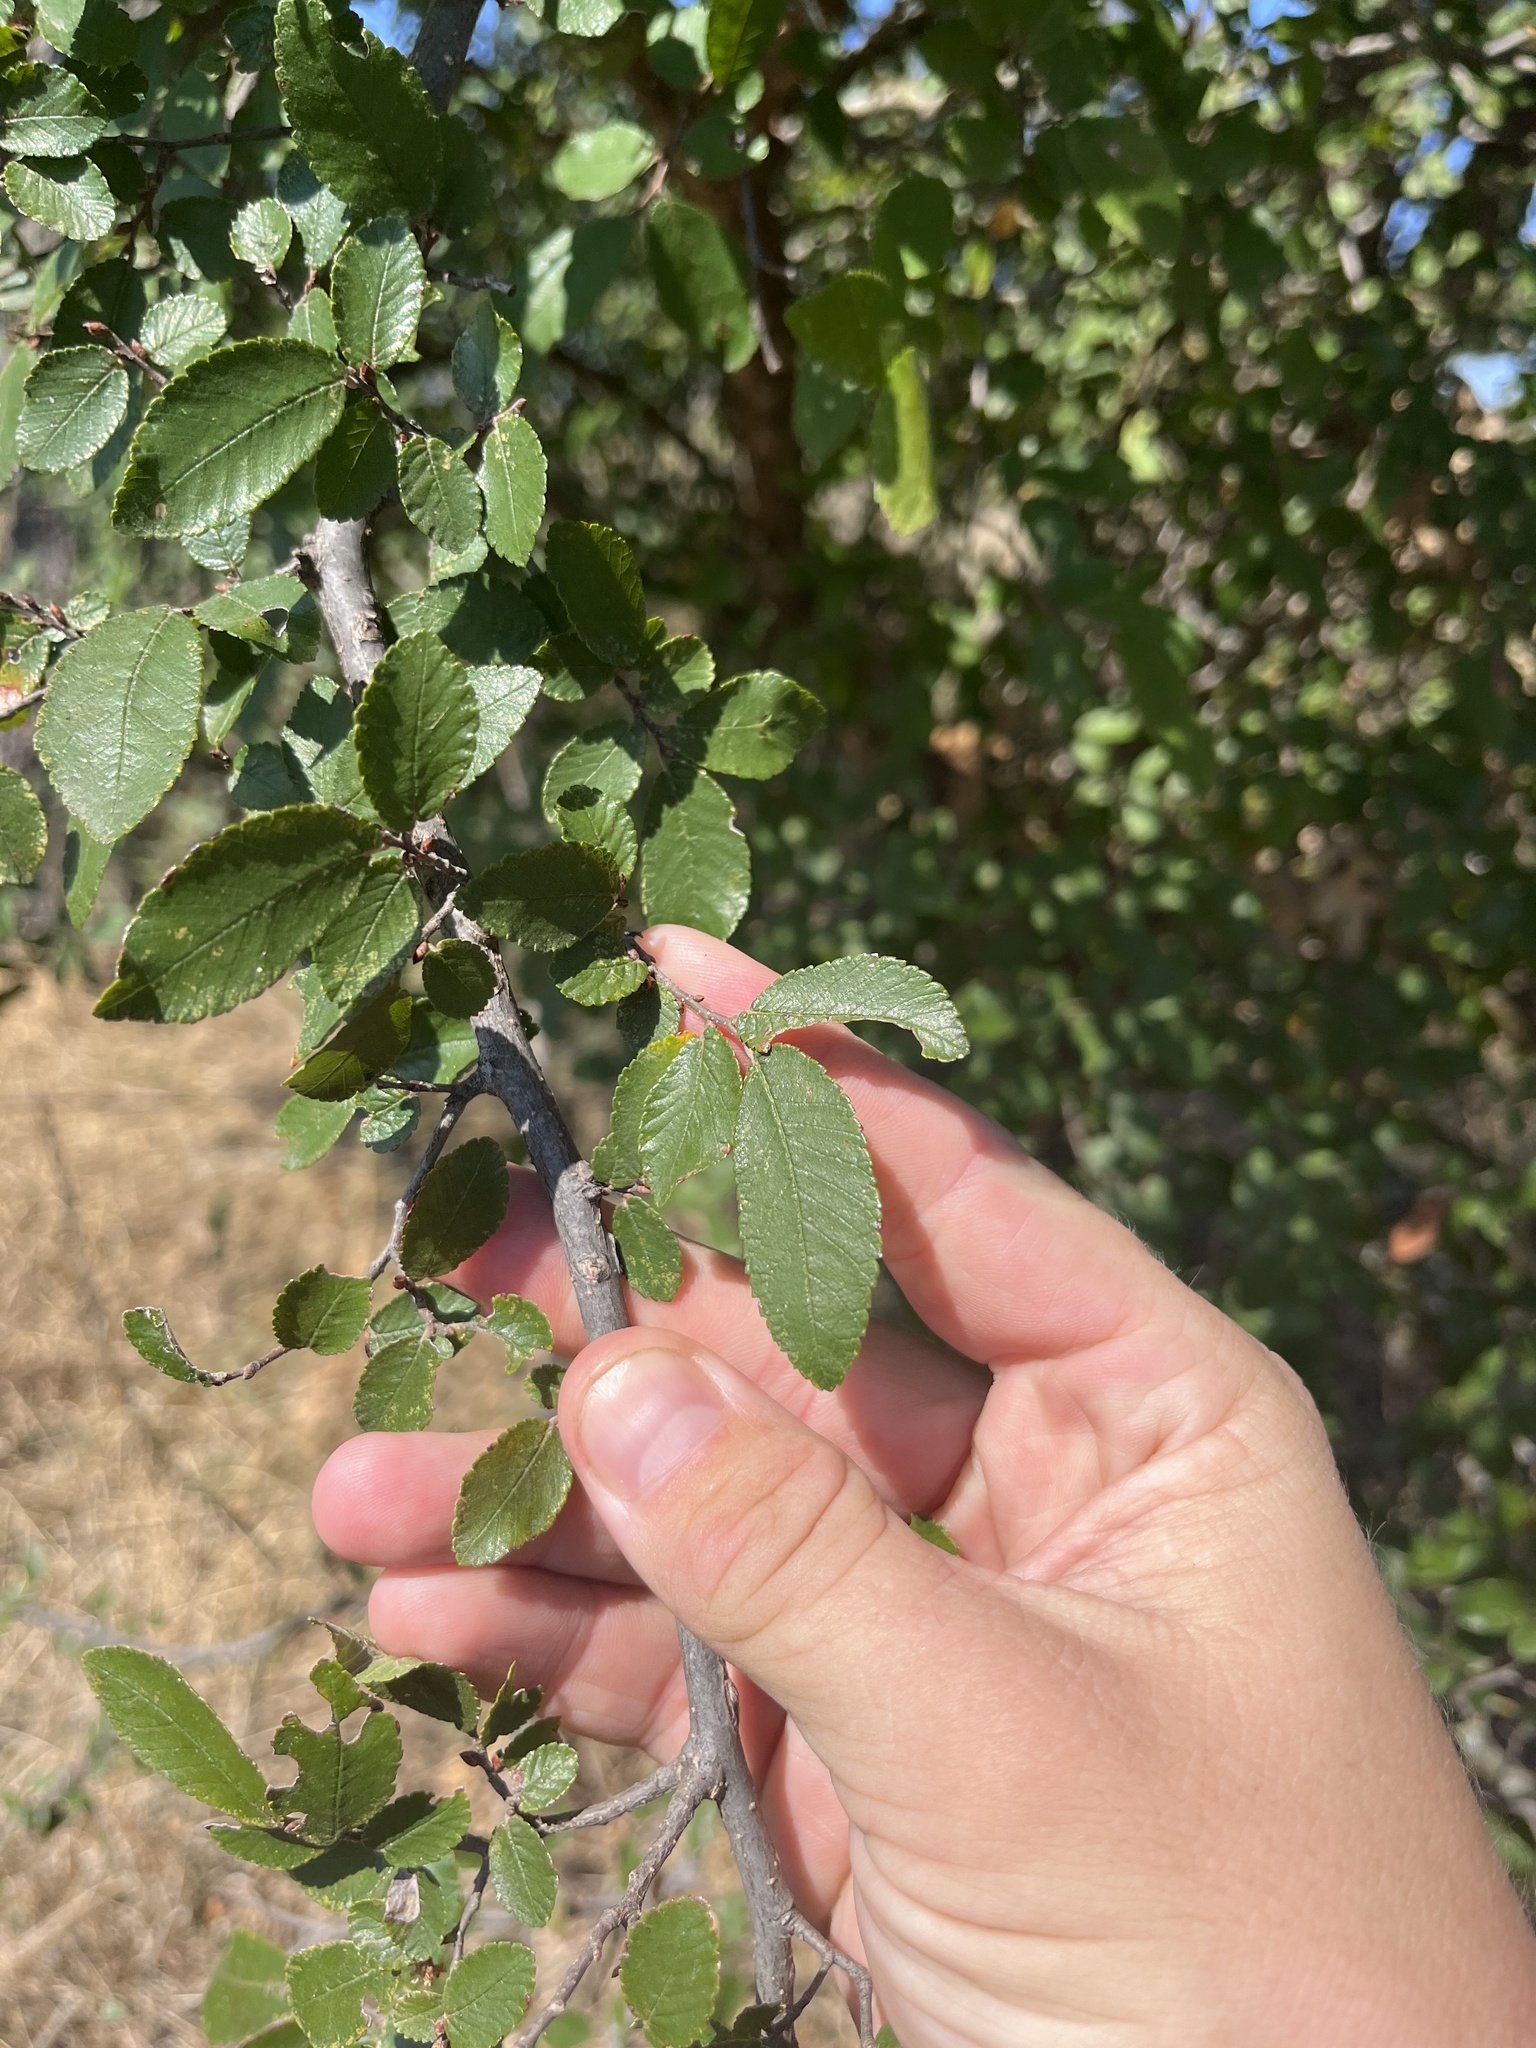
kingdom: Plantae
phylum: Tracheophyta
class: Magnoliopsida
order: Rosales
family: Ulmaceae
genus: Ulmus
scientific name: Ulmus crassifolia
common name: Basket elm
